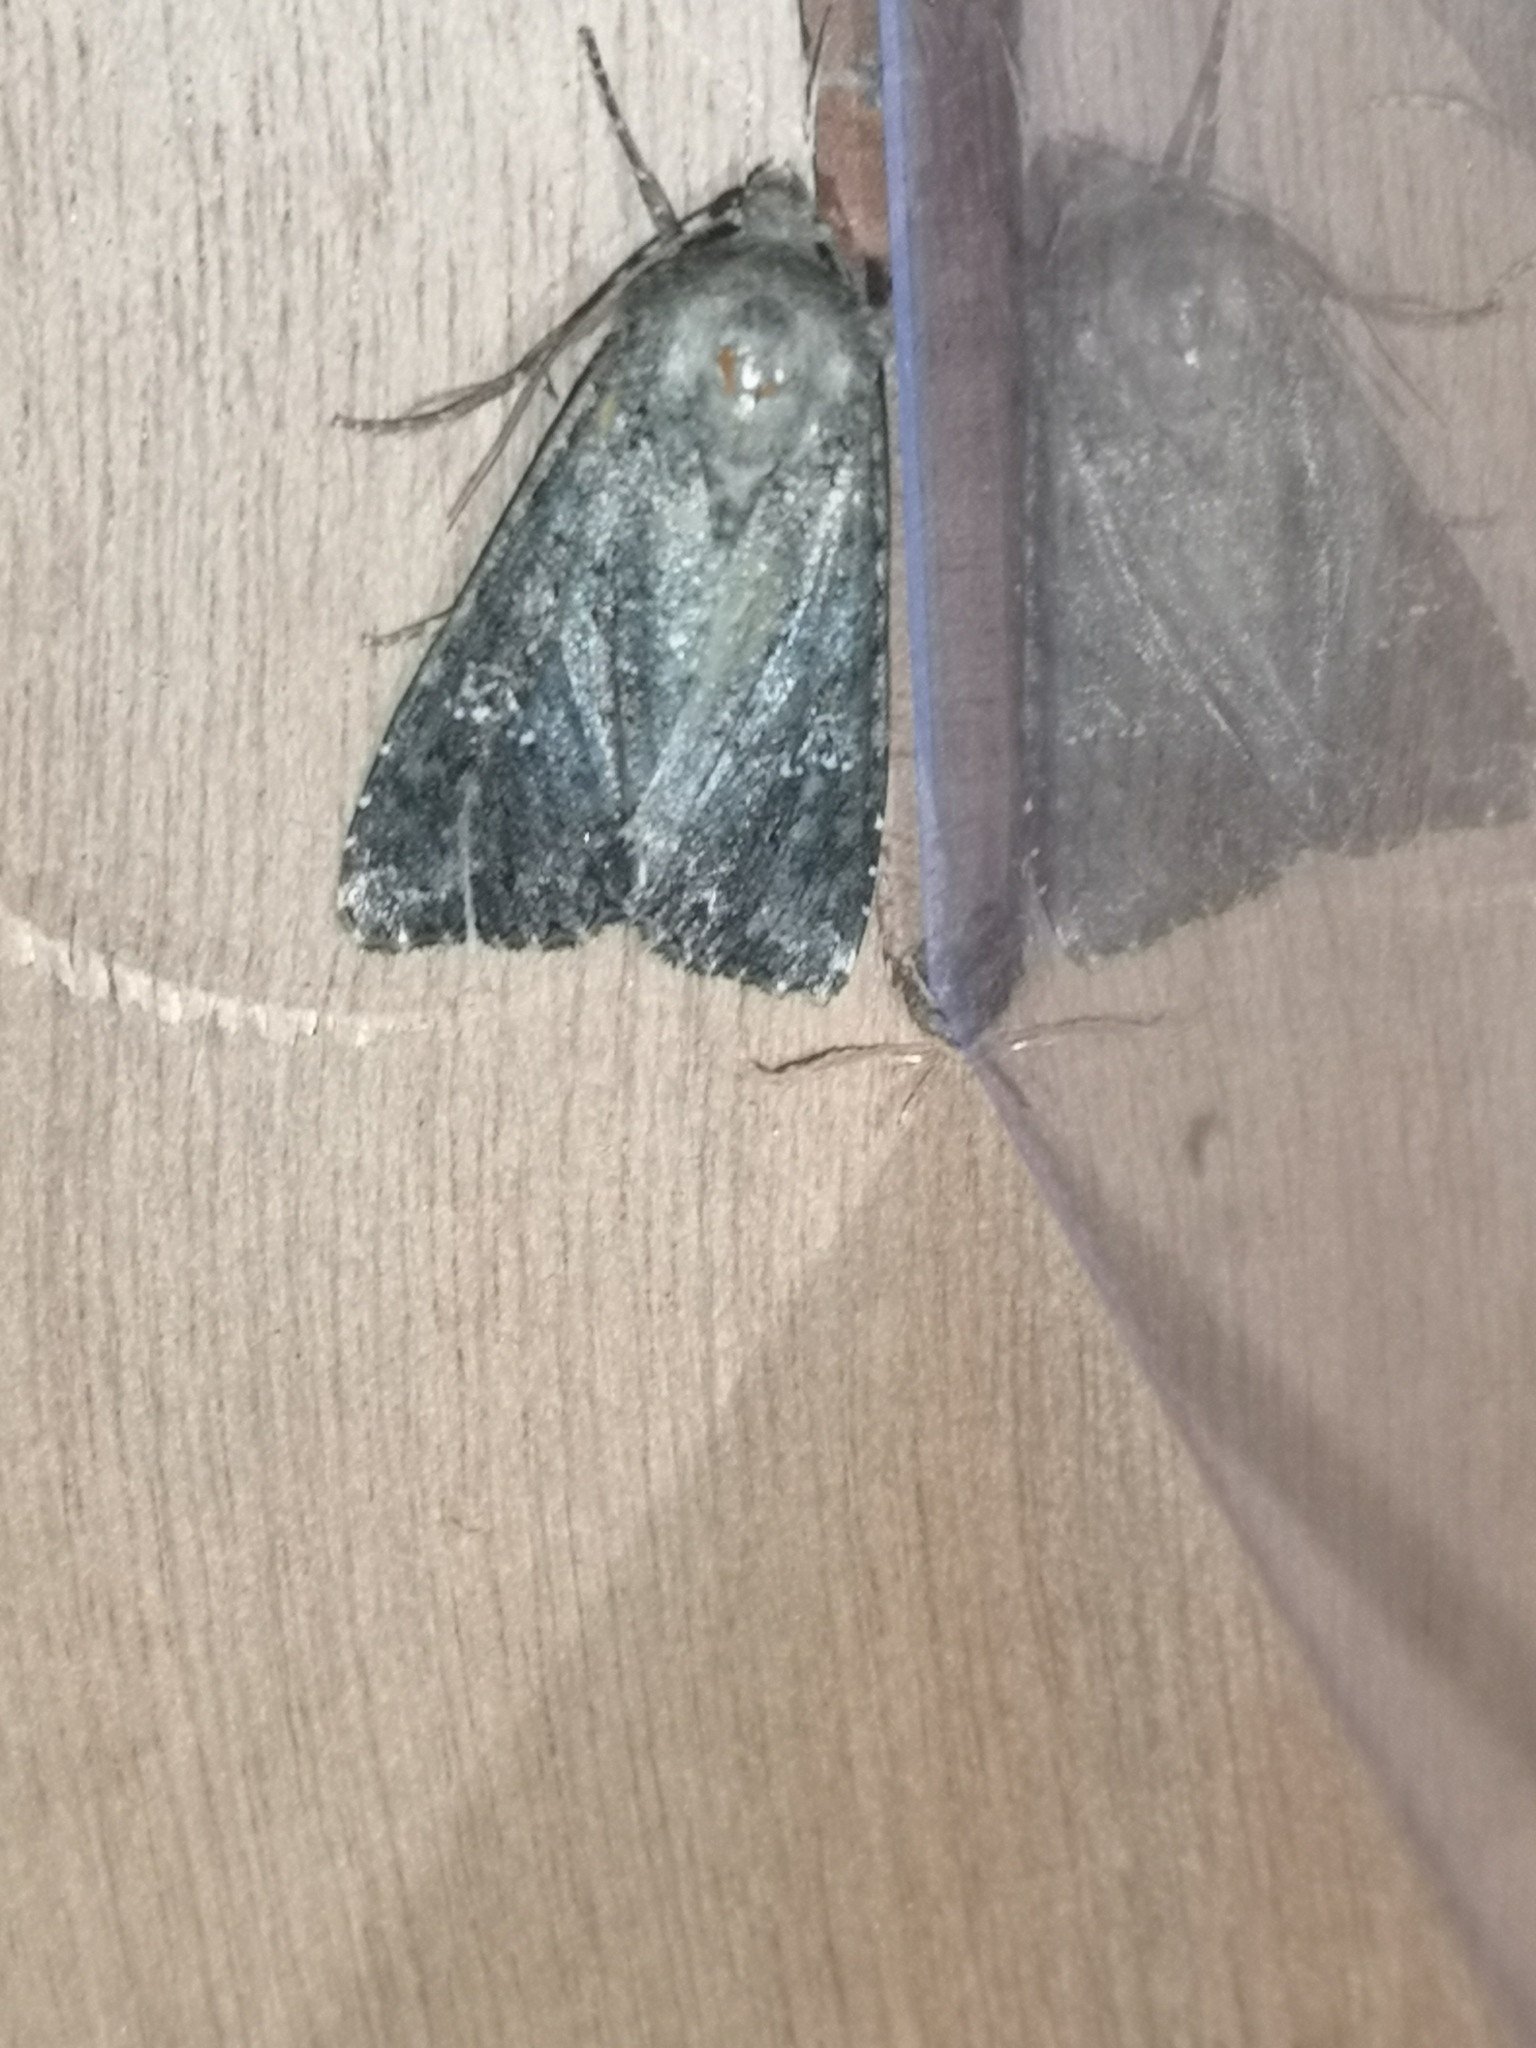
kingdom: Animalia
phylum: Arthropoda
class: Insecta
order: Lepidoptera
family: Noctuidae
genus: Mamestra
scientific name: Mamestra brassicae
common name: Cabbage moth
